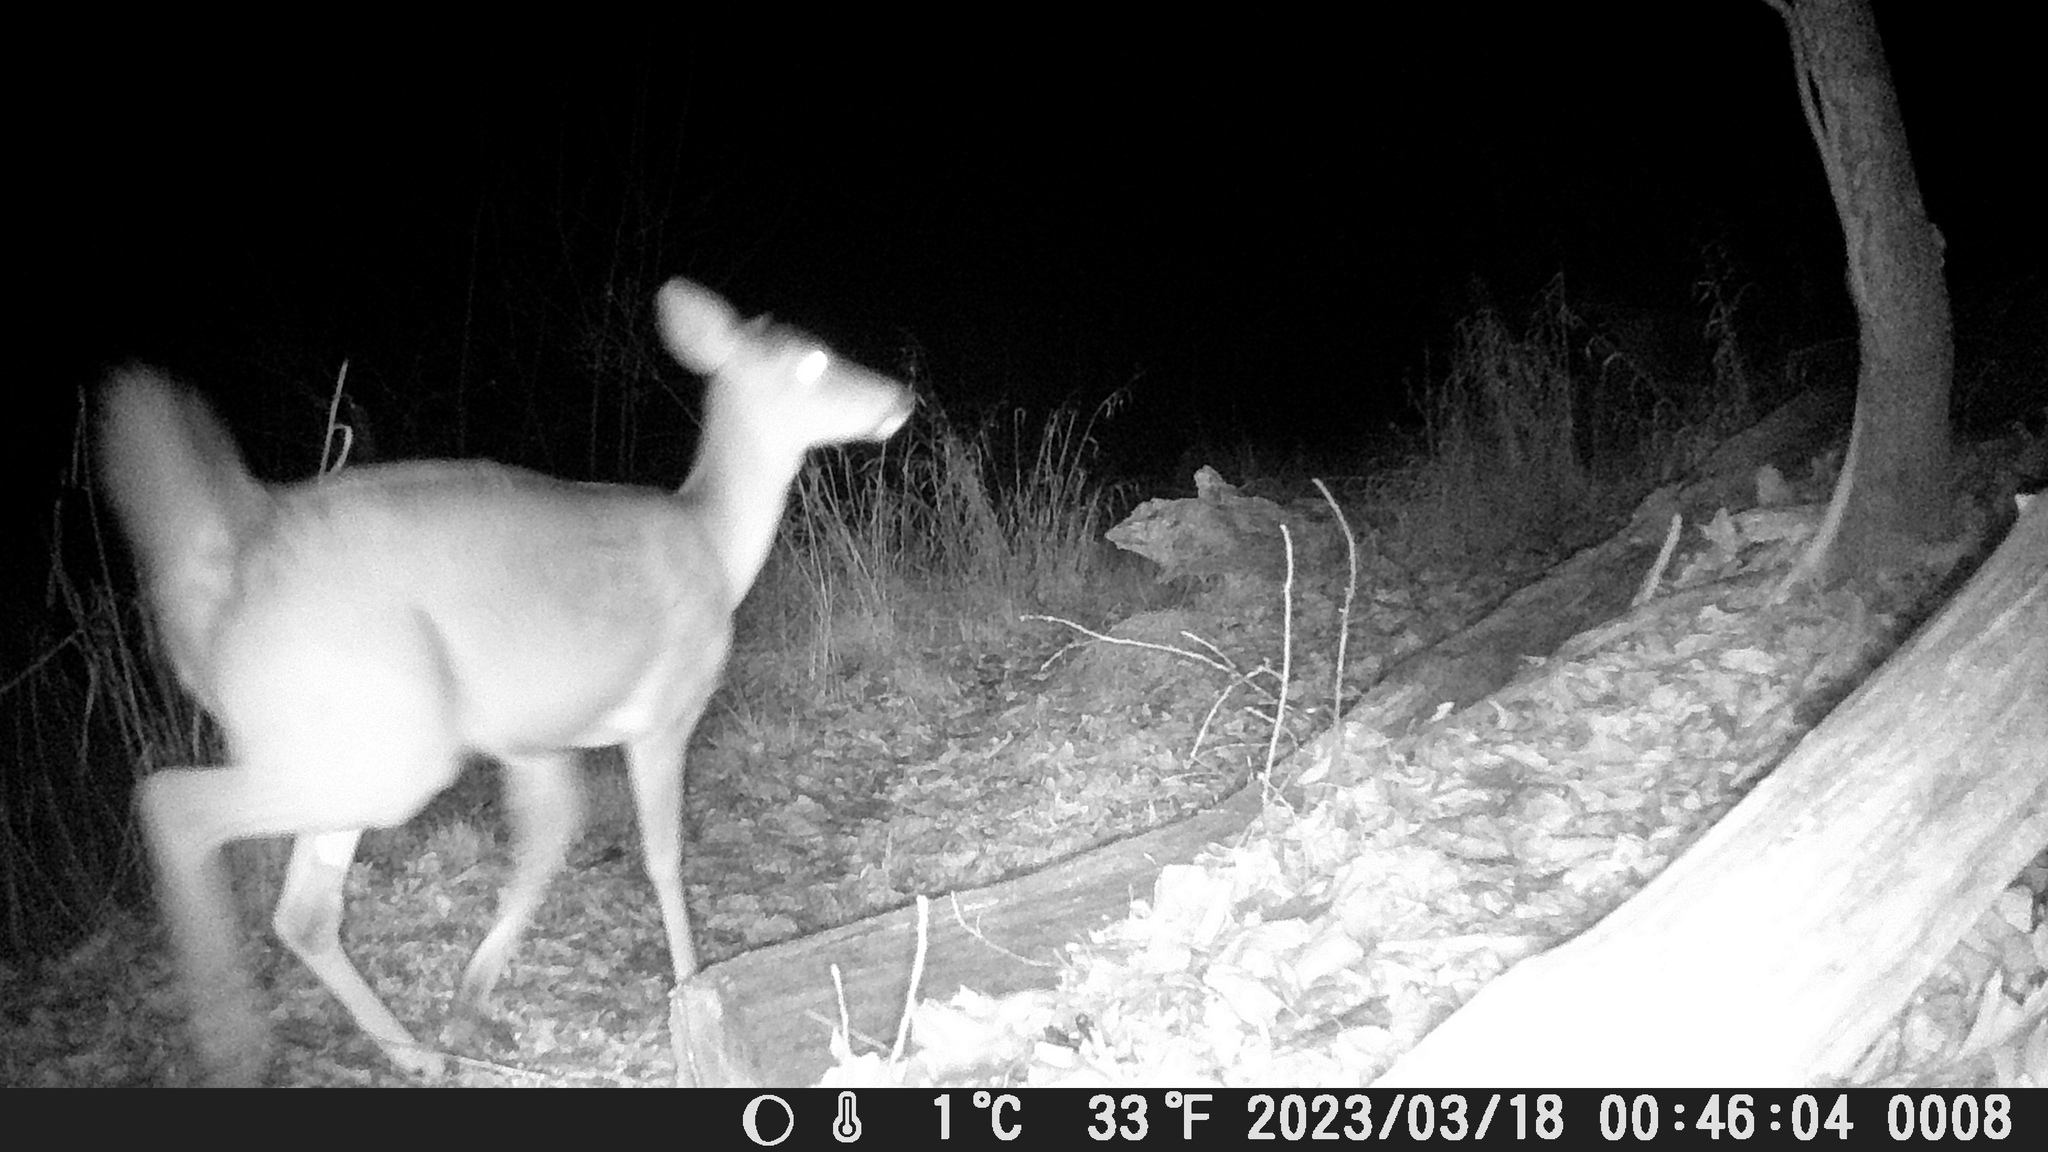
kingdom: Animalia
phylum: Chordata
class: Mammalia
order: Artiodactyla
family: Cervidae
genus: Odocoileus
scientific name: Odocoileus virginianus
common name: White-tailed deer
